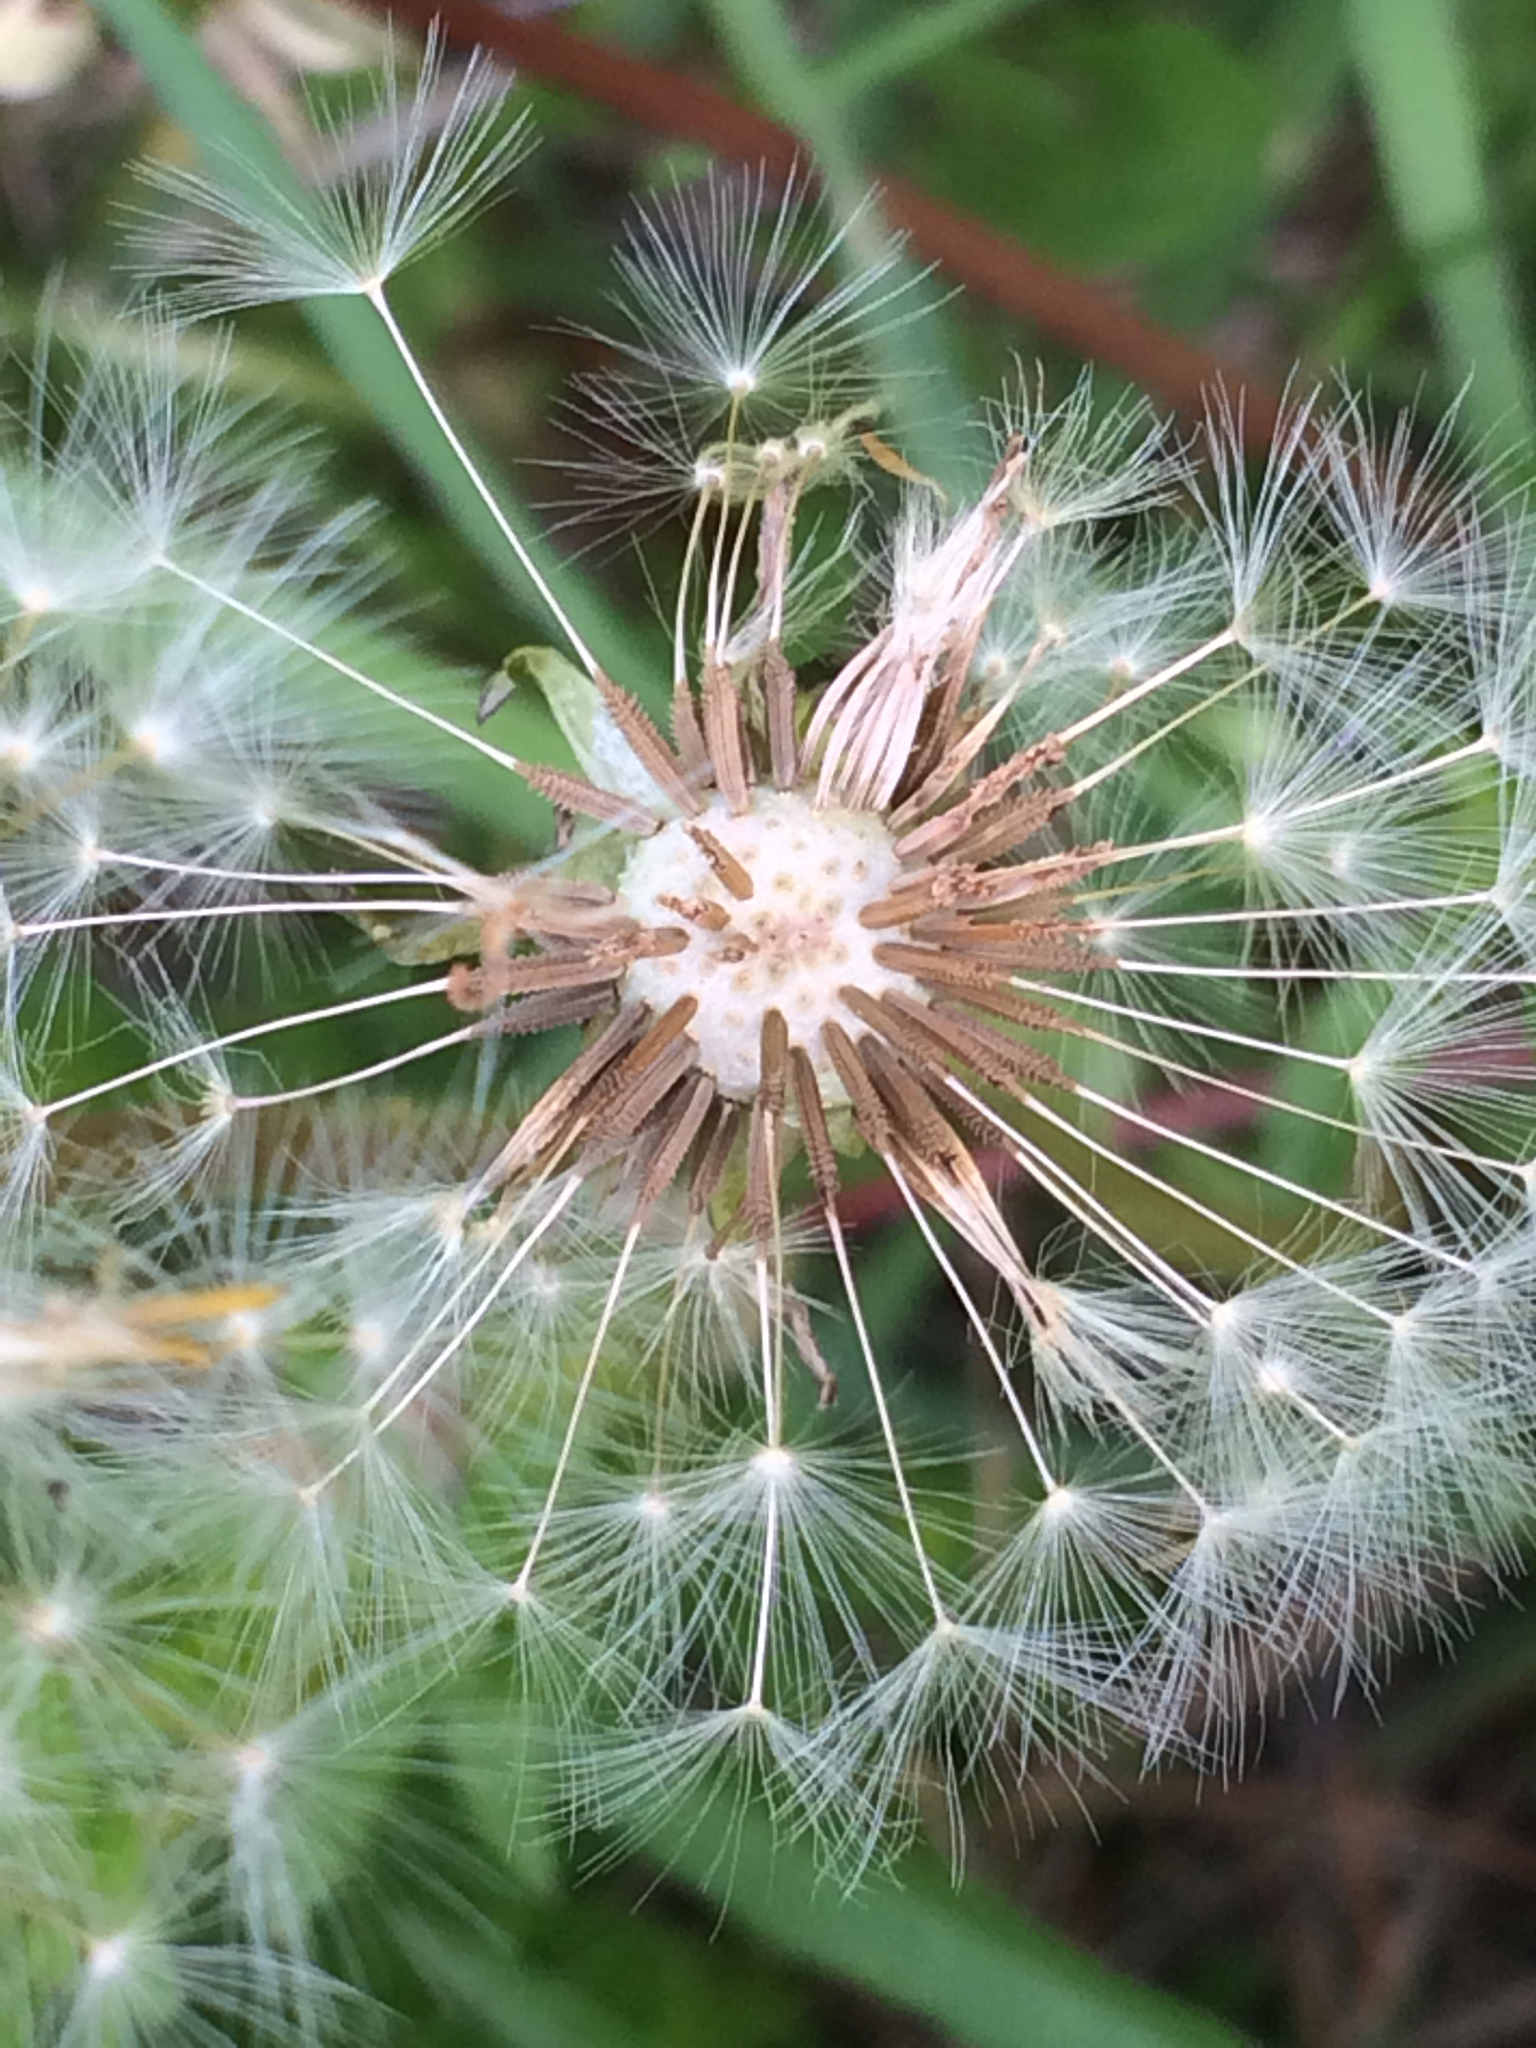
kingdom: Plantae
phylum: Tracheophyta
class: Magnoliopsida
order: Asterales
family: Asteraceae
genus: Taraxacum
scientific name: Taraxacum officinale
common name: Common dandelion
